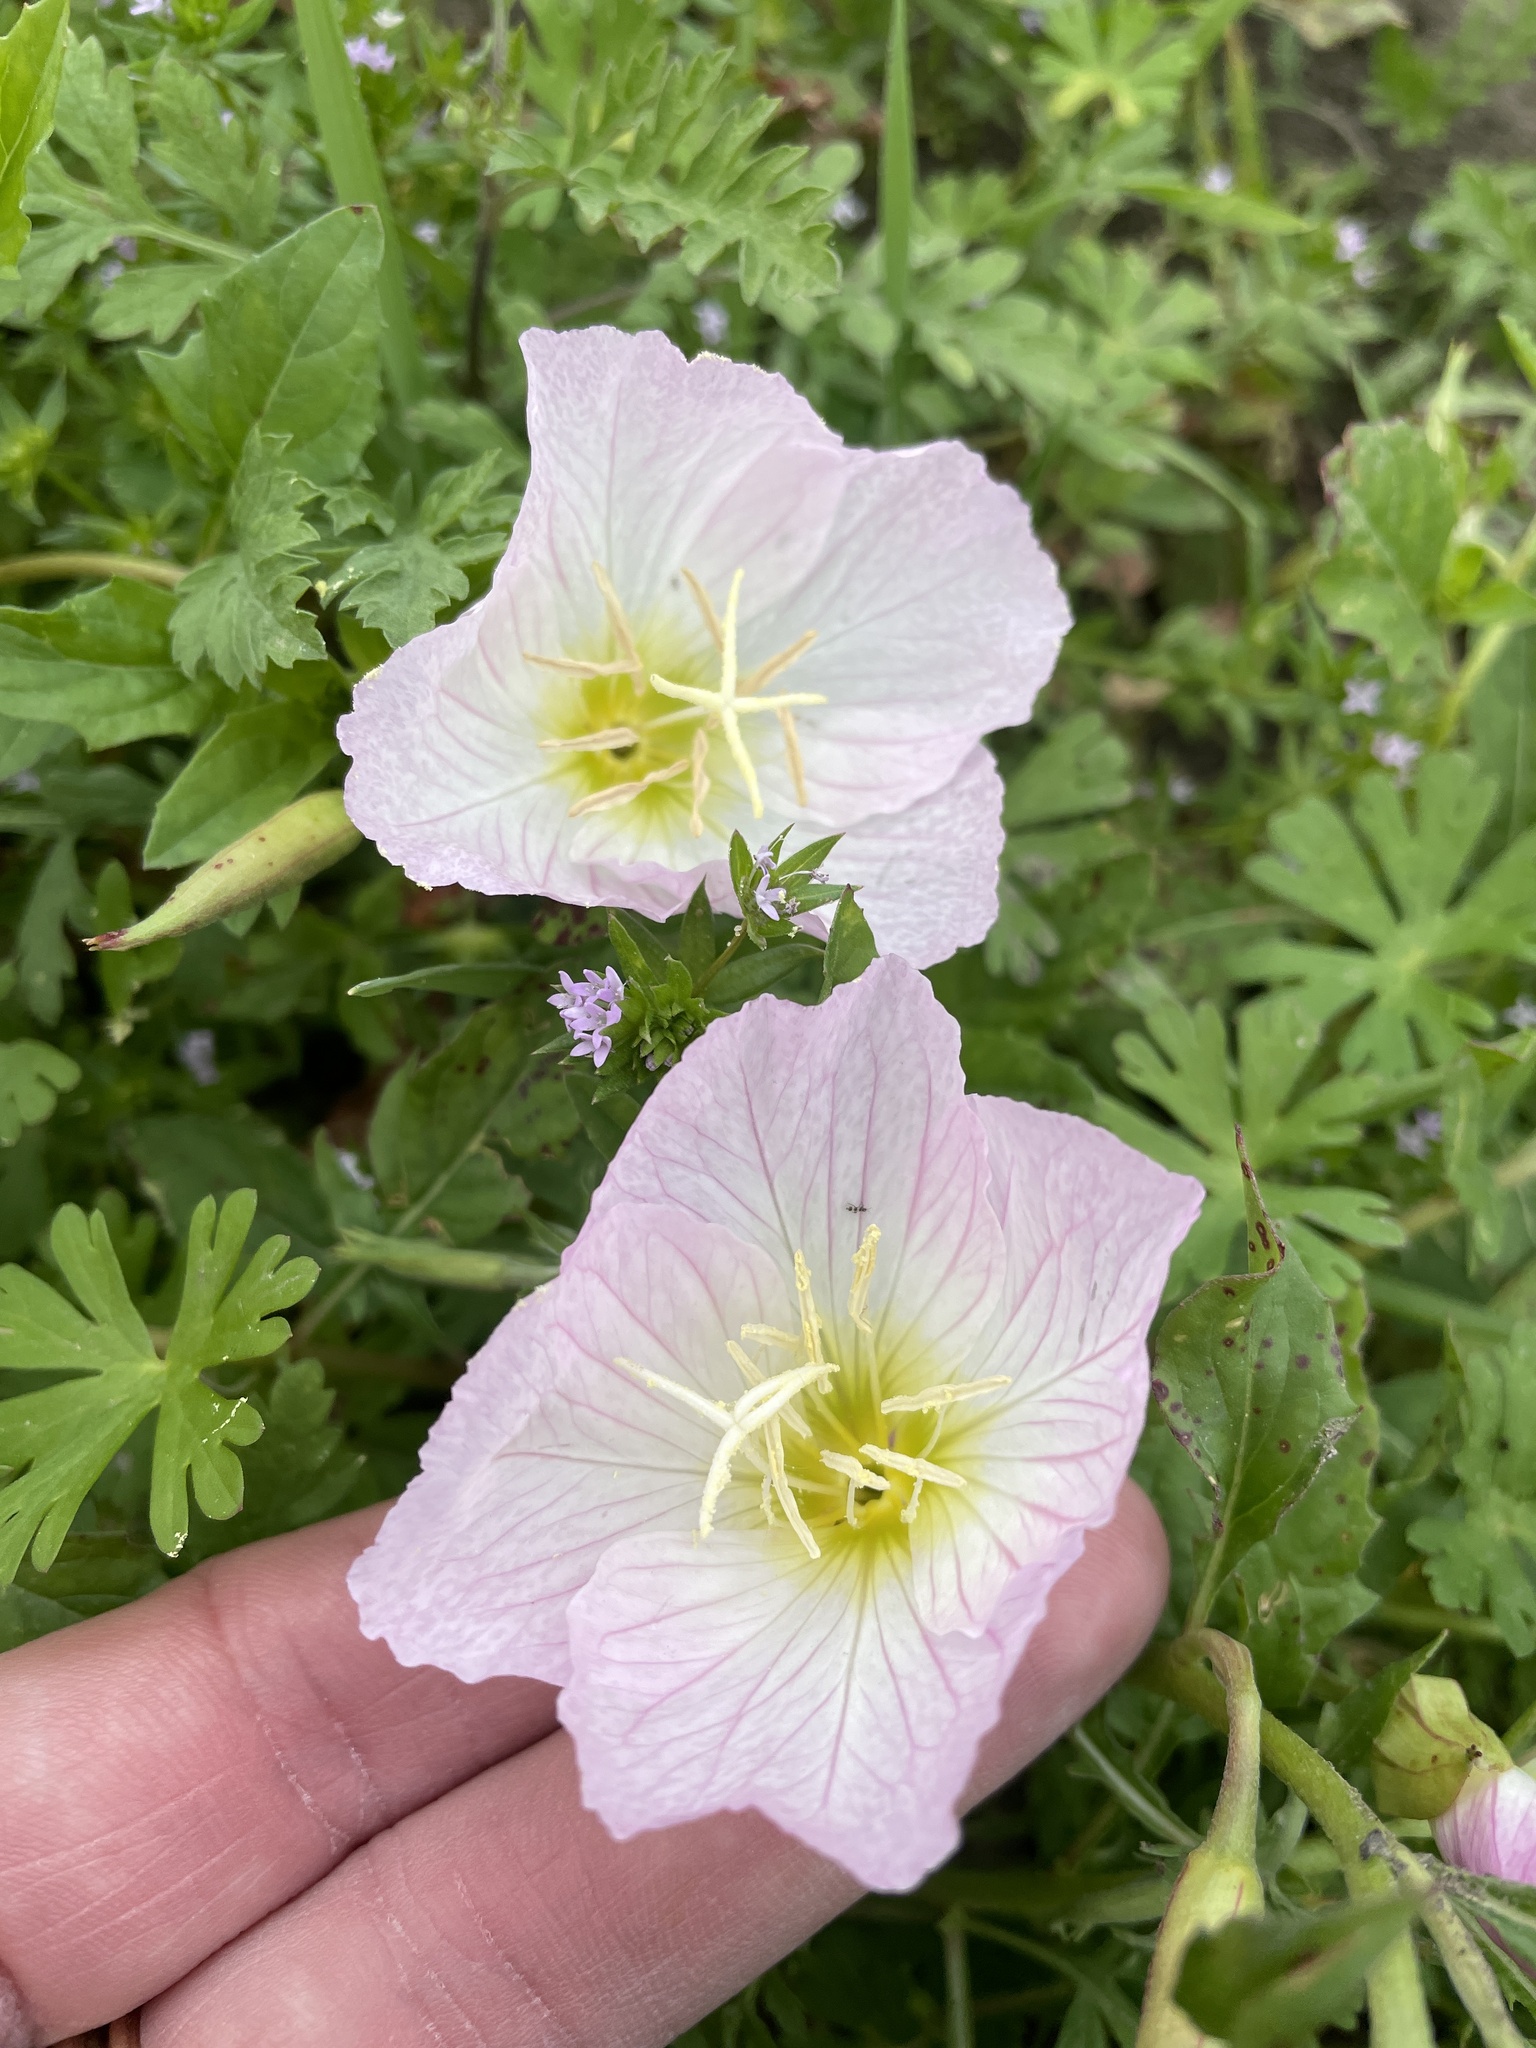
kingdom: Plantae
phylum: Tracheophyta
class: Magnoliopsida
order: Myrtales
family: Onagraceae
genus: Oenothera
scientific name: Oenothera speciosa
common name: White evening-primrose
